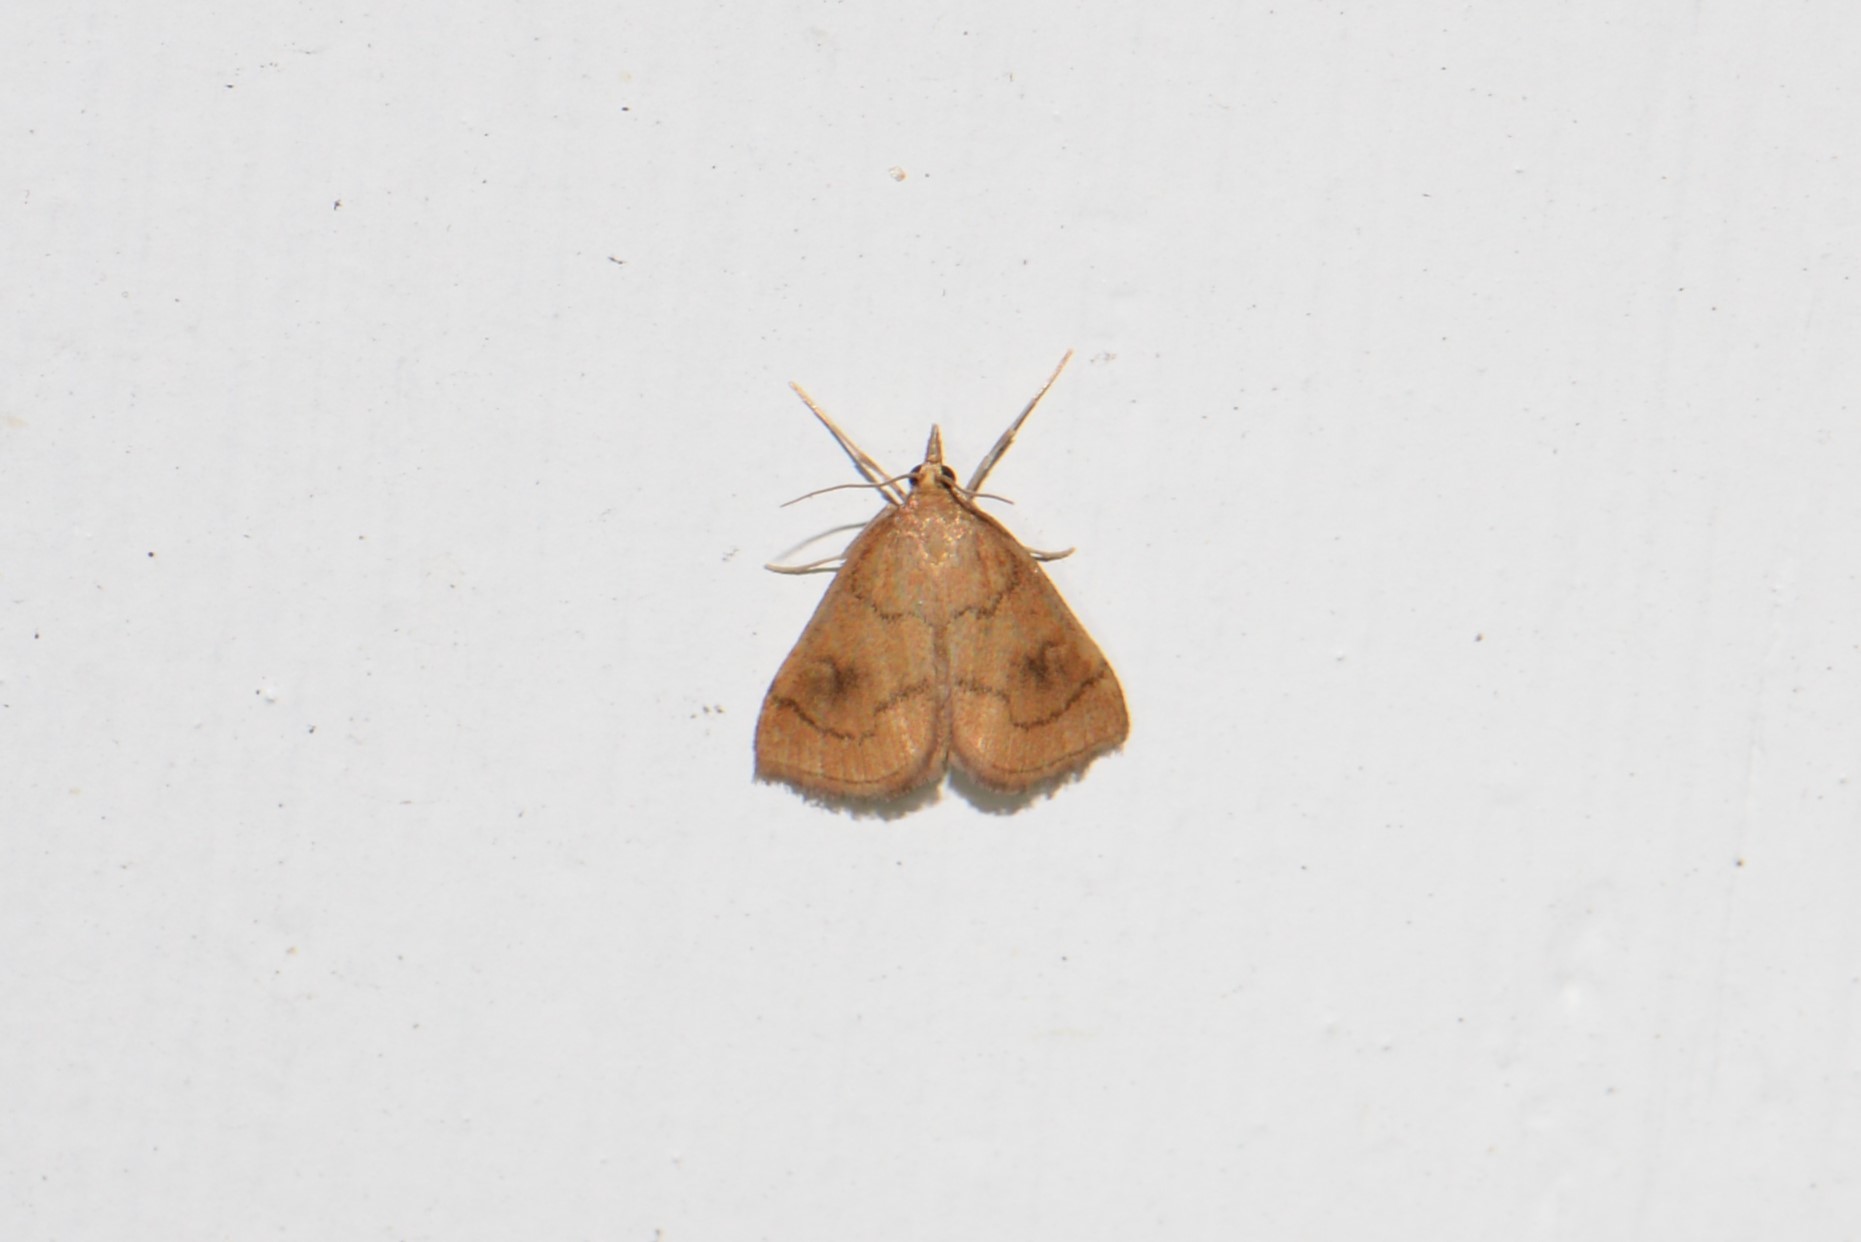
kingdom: Animalia
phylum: Arthropoda
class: Insecta
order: Lepidoptera
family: Crambidae
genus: Fumibotys
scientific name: Fumibotys fumalis
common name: Mint root borer moth
